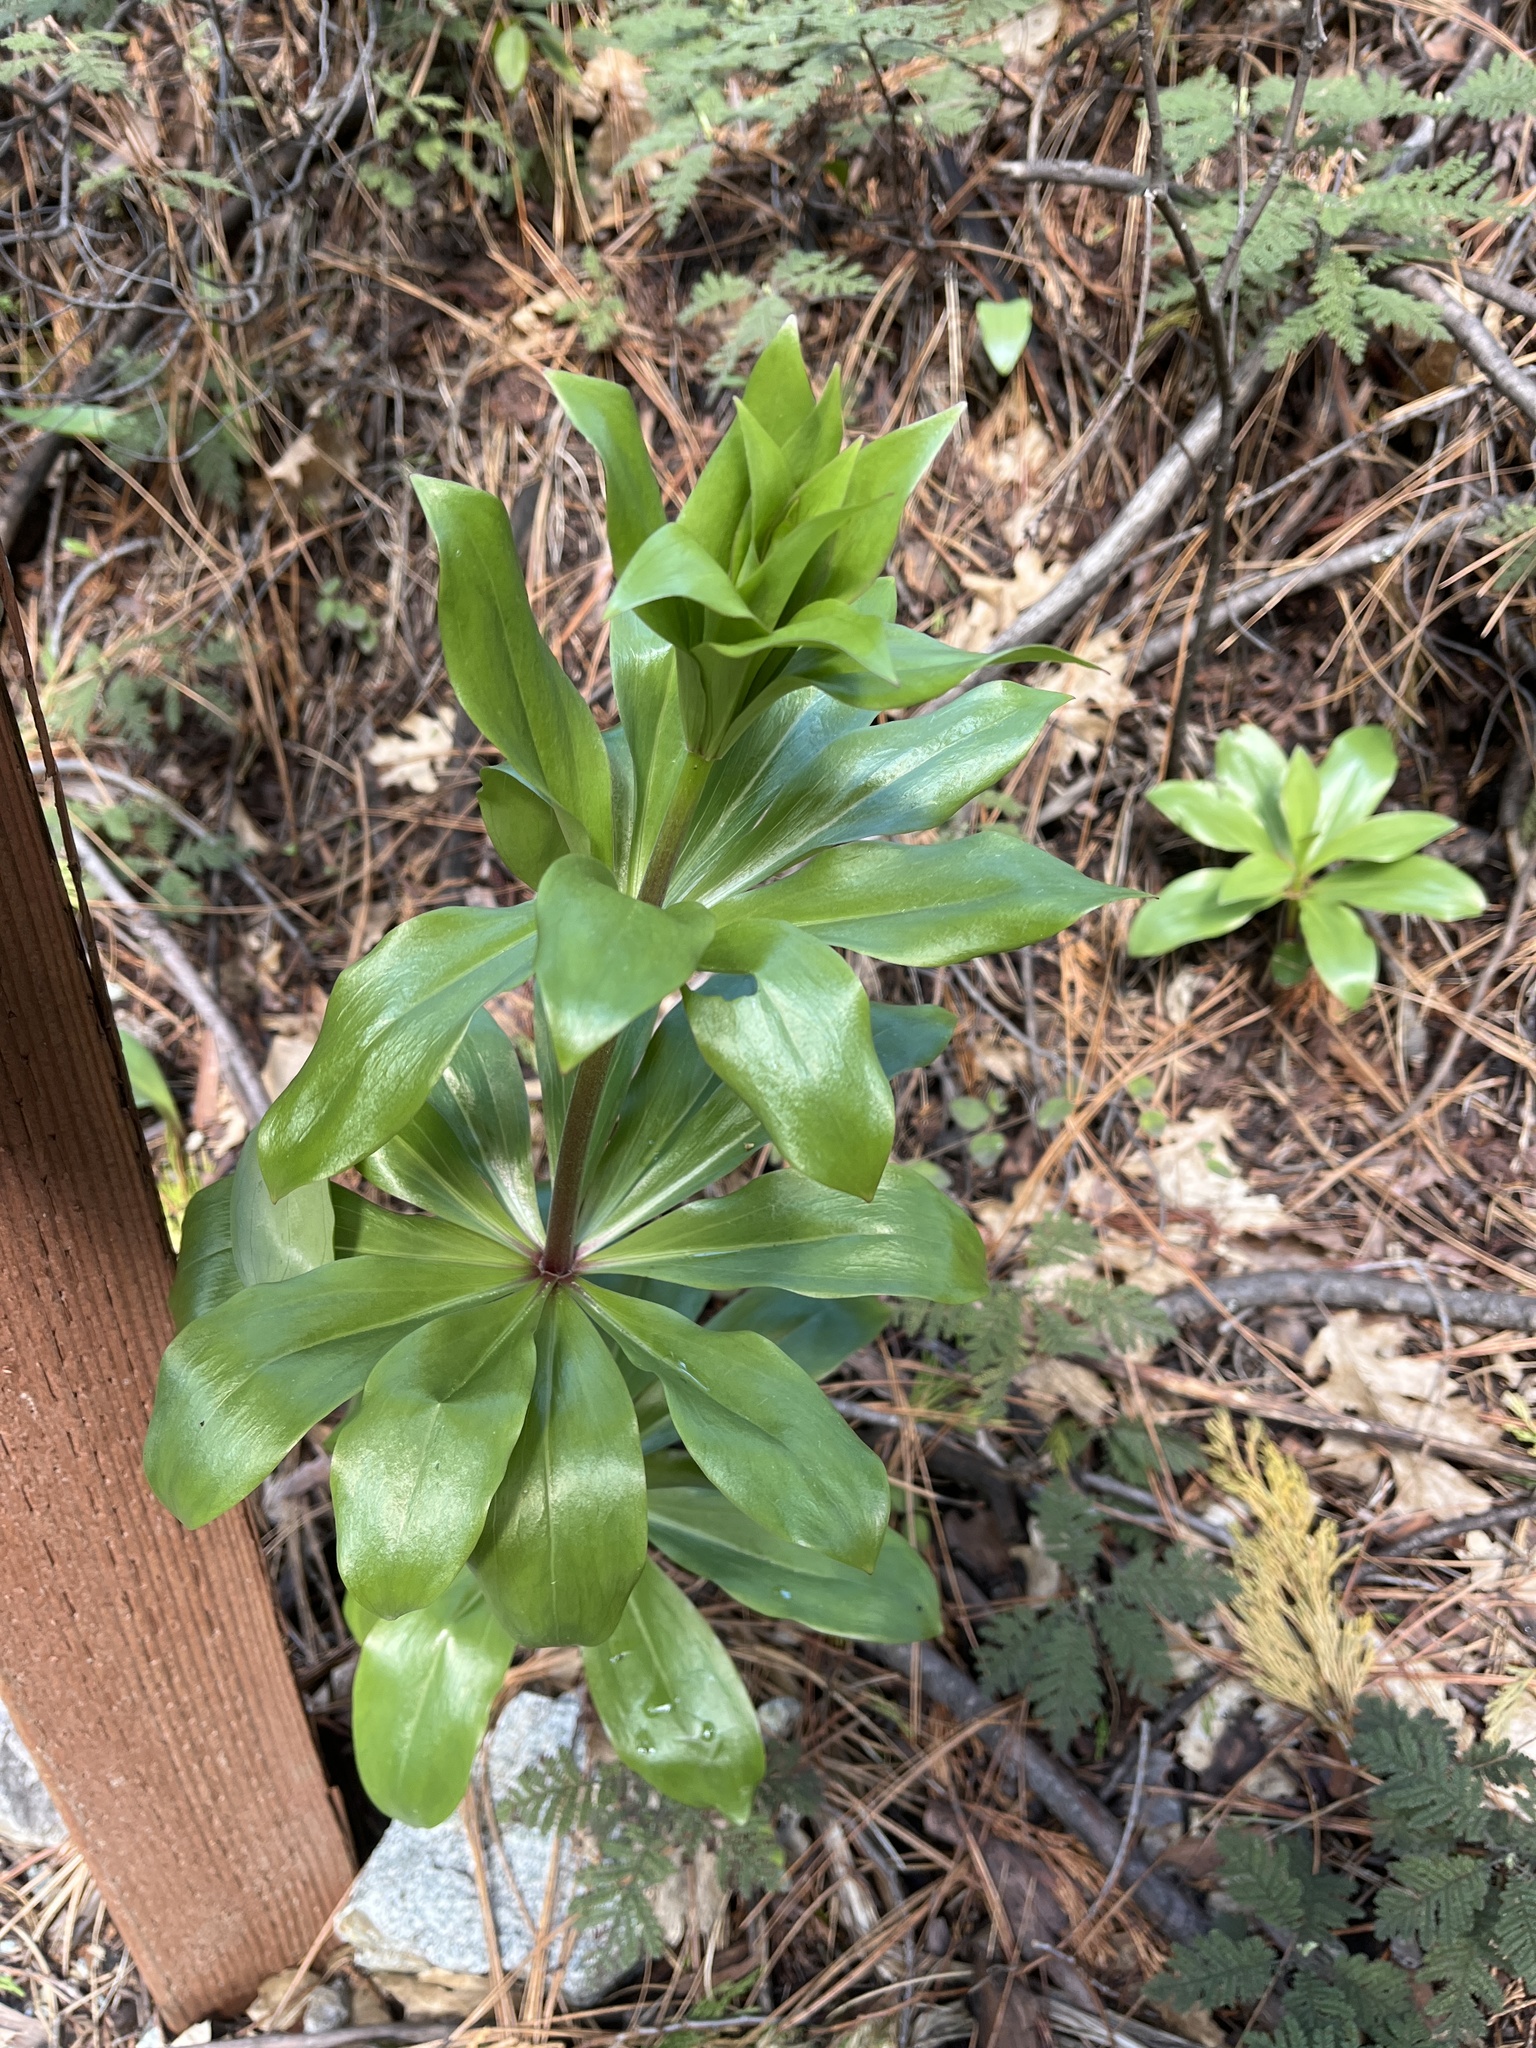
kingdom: Plantae
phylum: Tracheophyta
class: Liliopsida
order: Liliales
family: Liliaceae
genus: Lilium
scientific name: Lilium humboldtii
